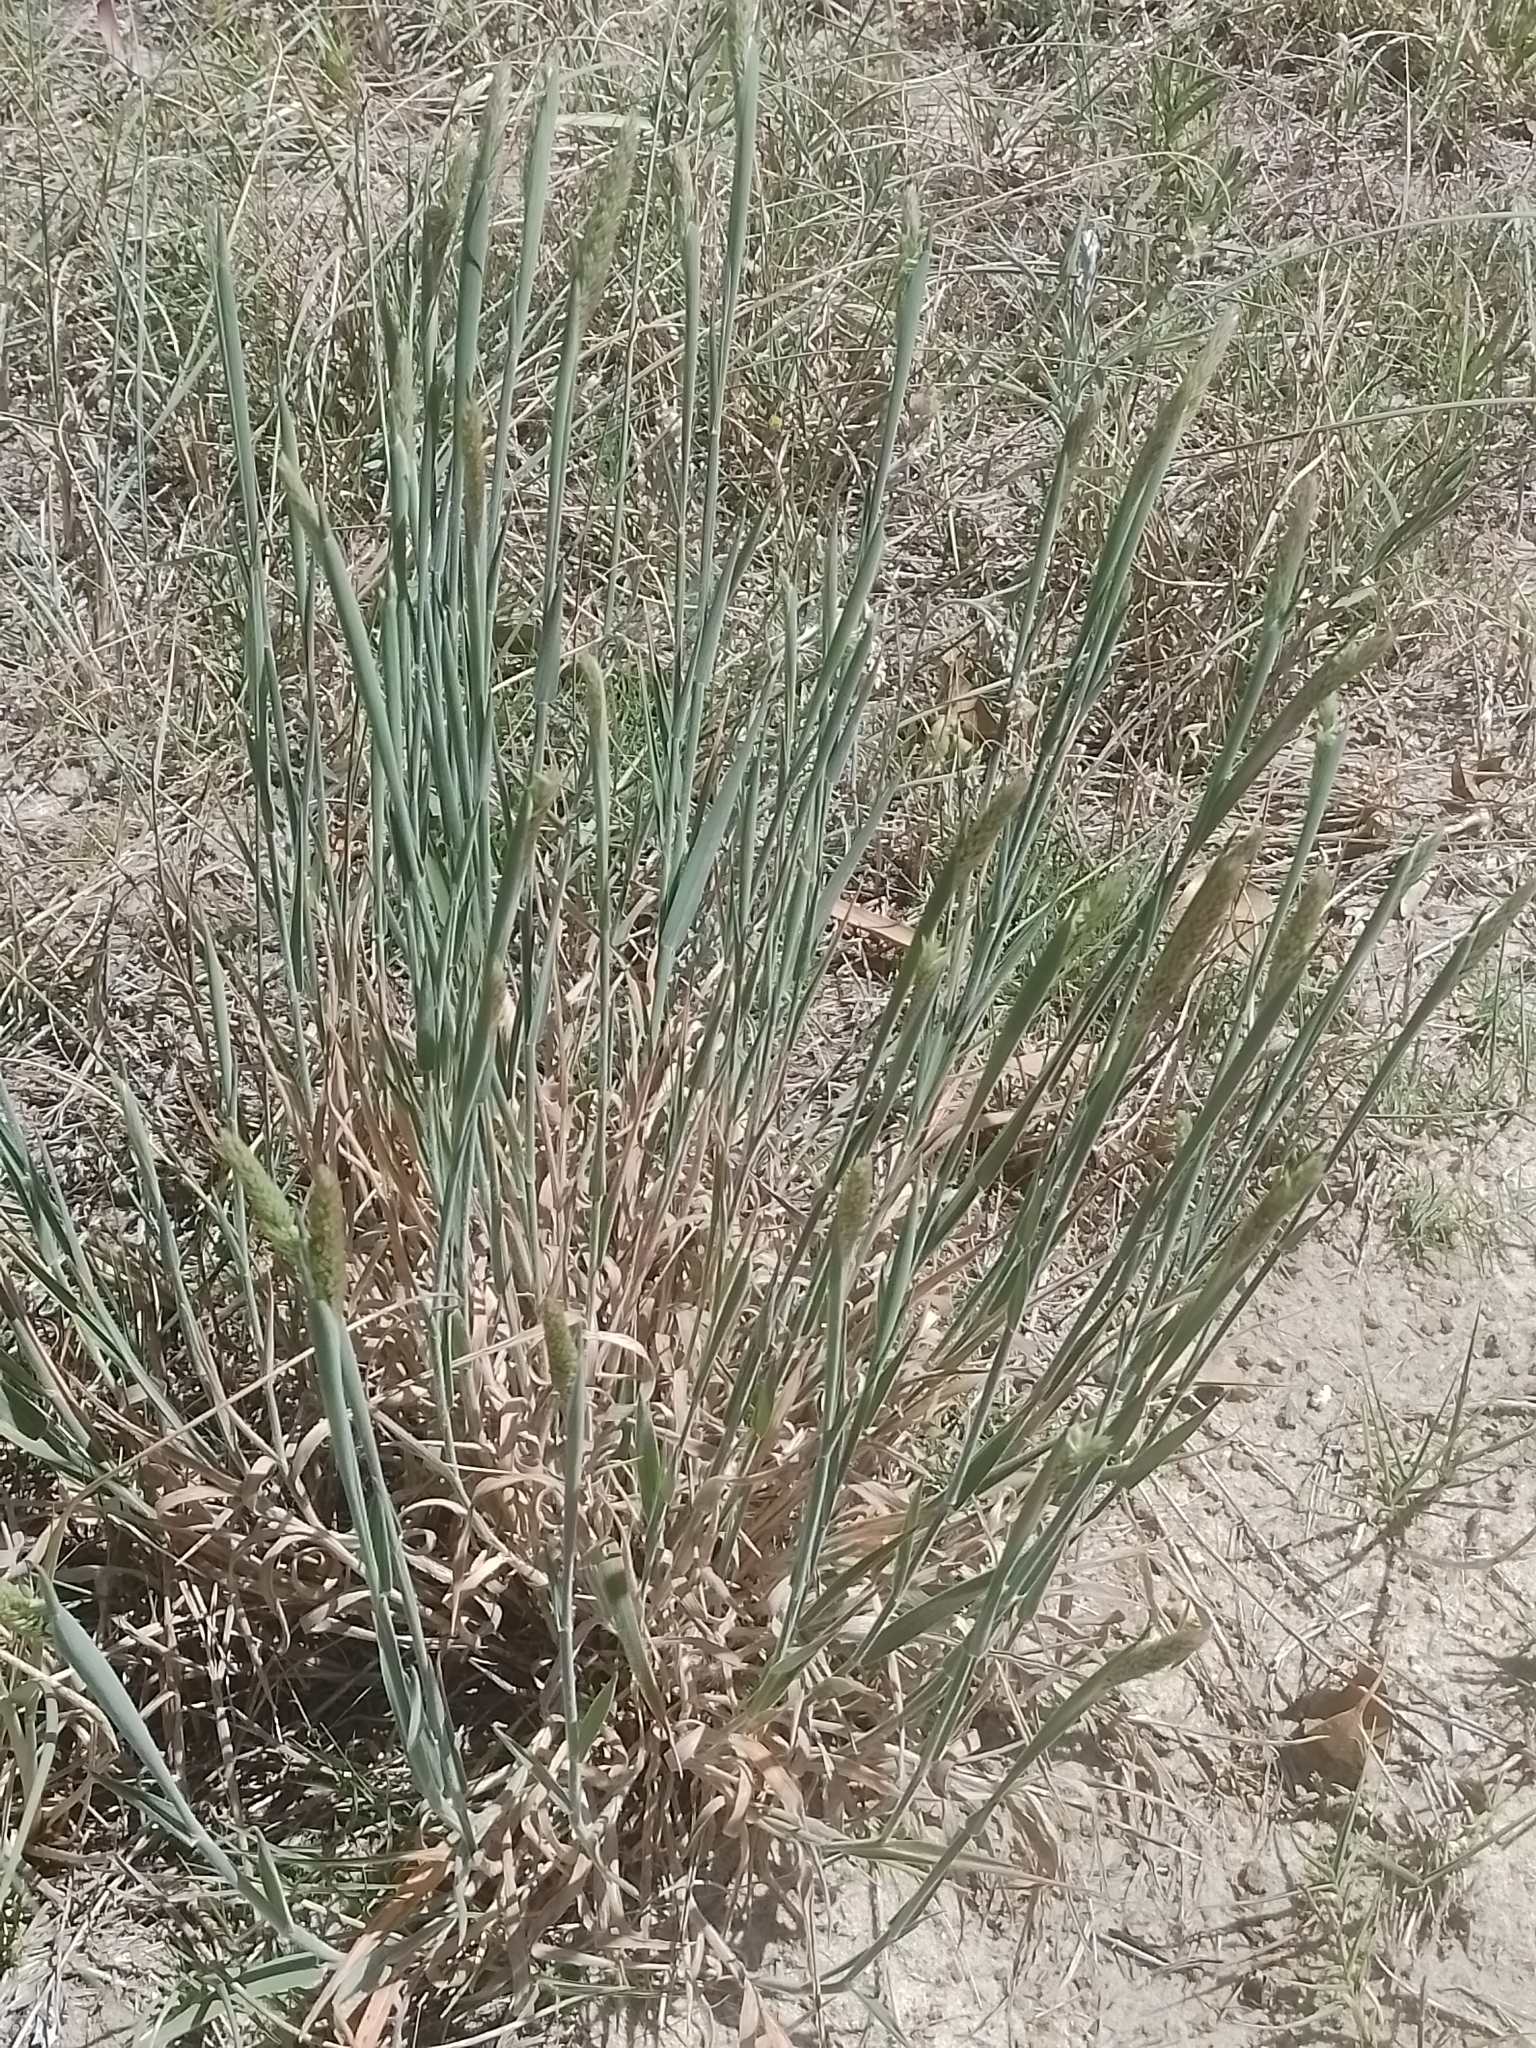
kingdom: Plantae
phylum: Tracheophyta
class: Liliopsida
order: Poales
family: Poaceae
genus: Holcus
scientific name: Holcus lanatus
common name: Yorkshire-fog
